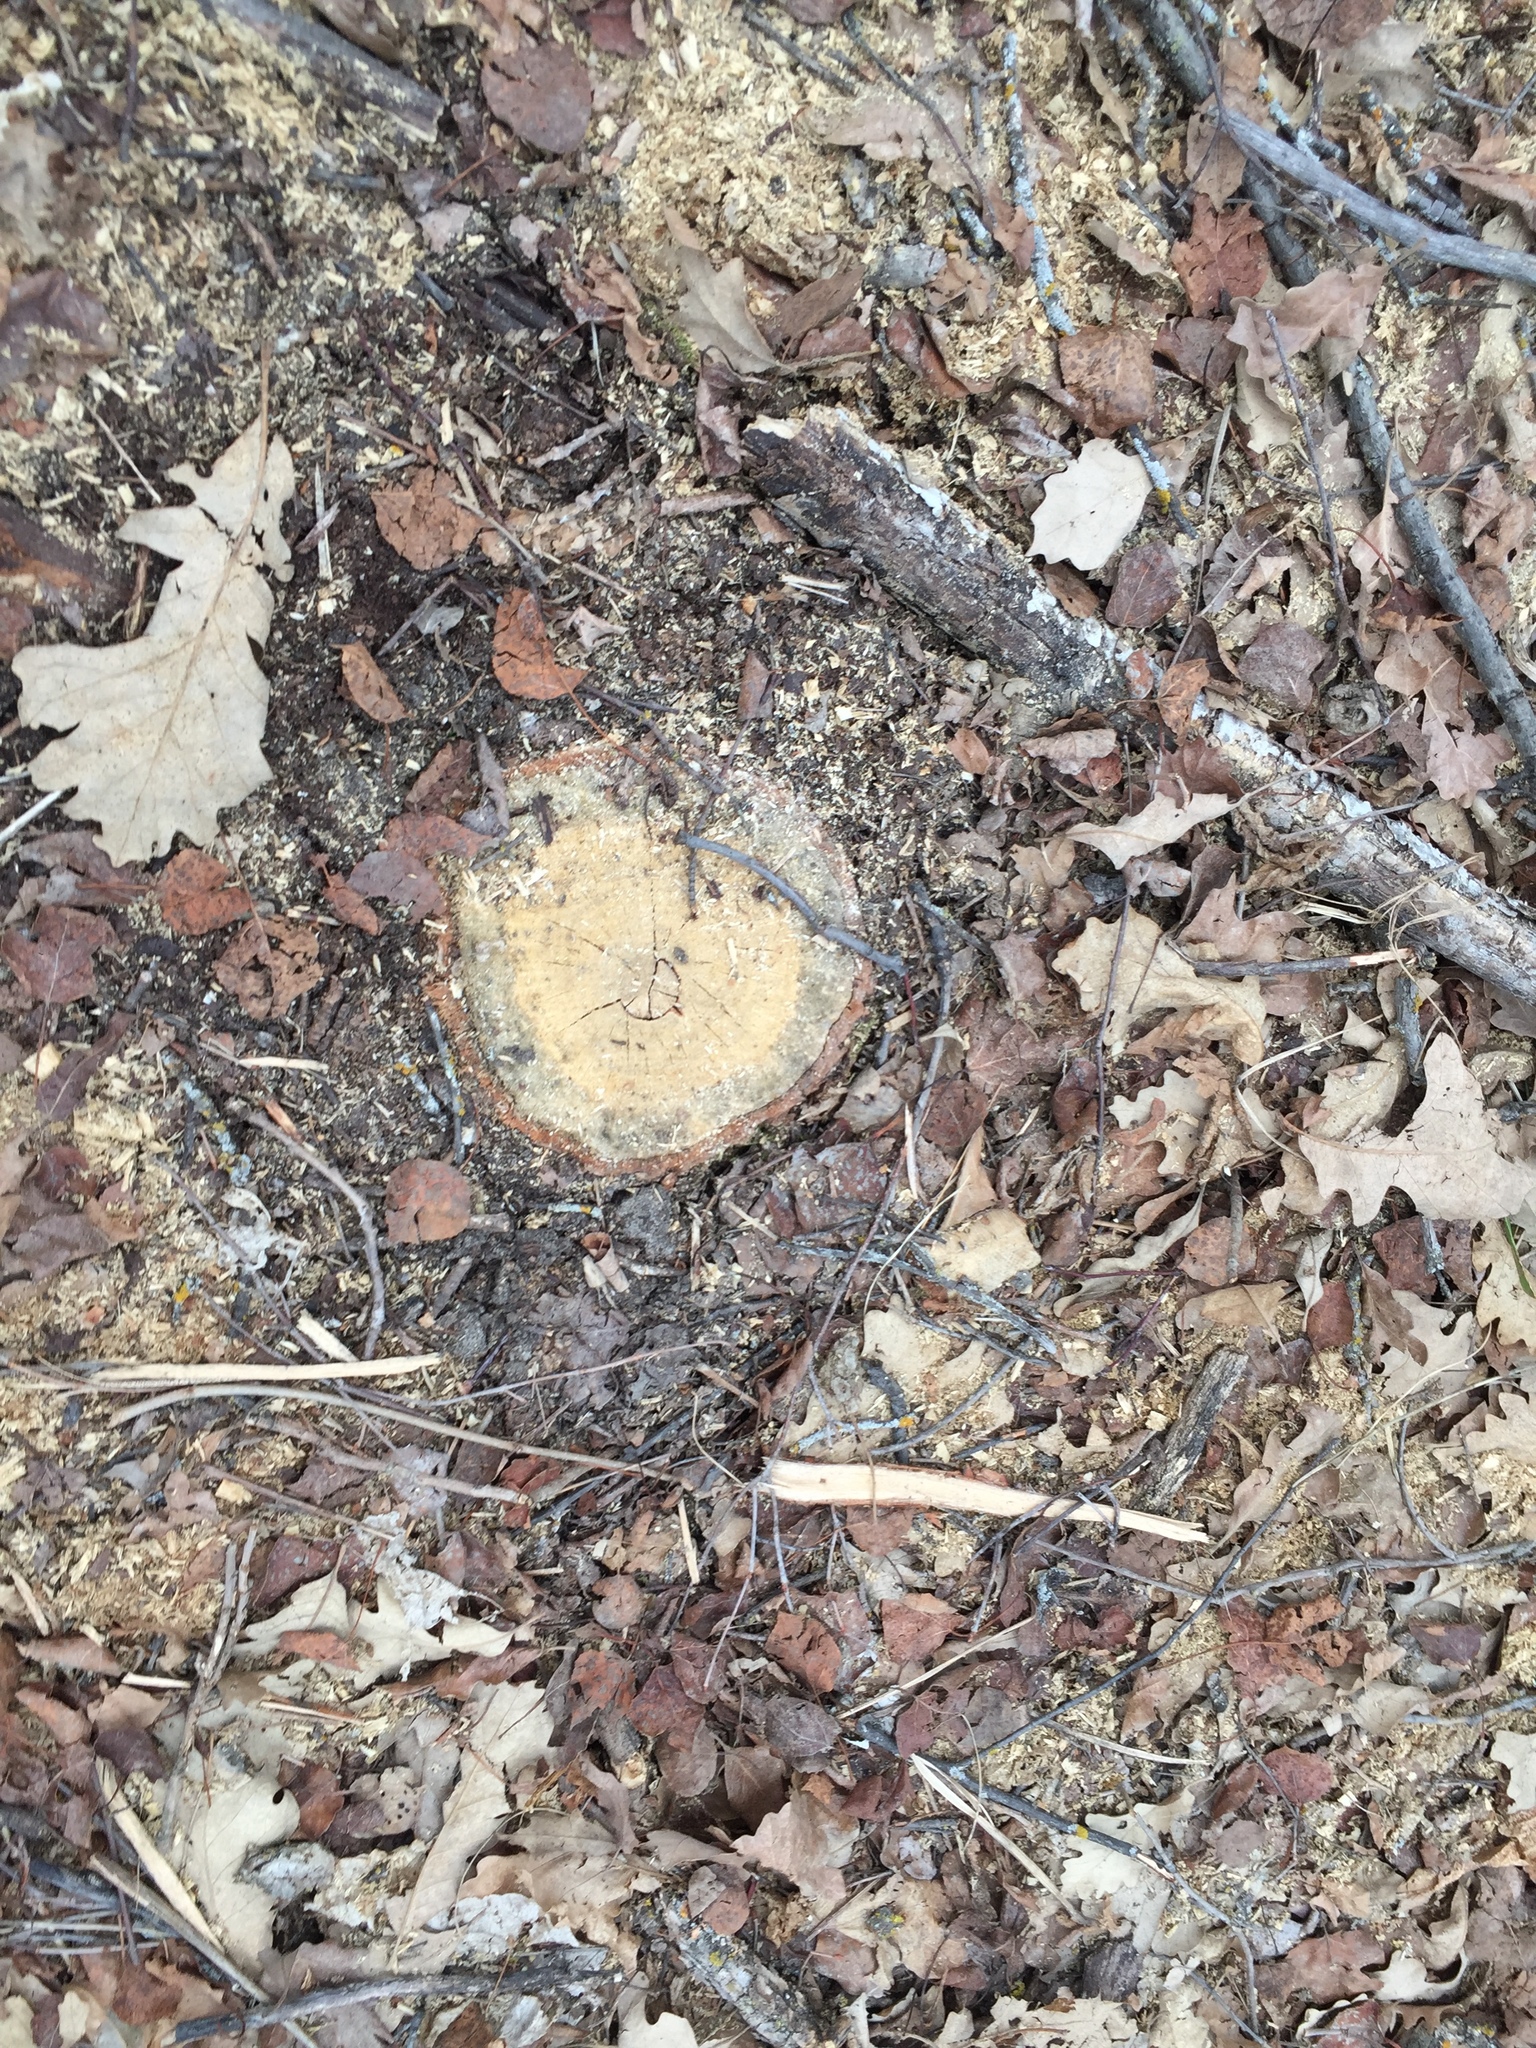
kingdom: Plantae
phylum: Tracheophyta
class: Magnoliopsida
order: Fagales
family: Fagaceae
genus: Quercus
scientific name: Quercus macrocarpa
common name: Bur oak
